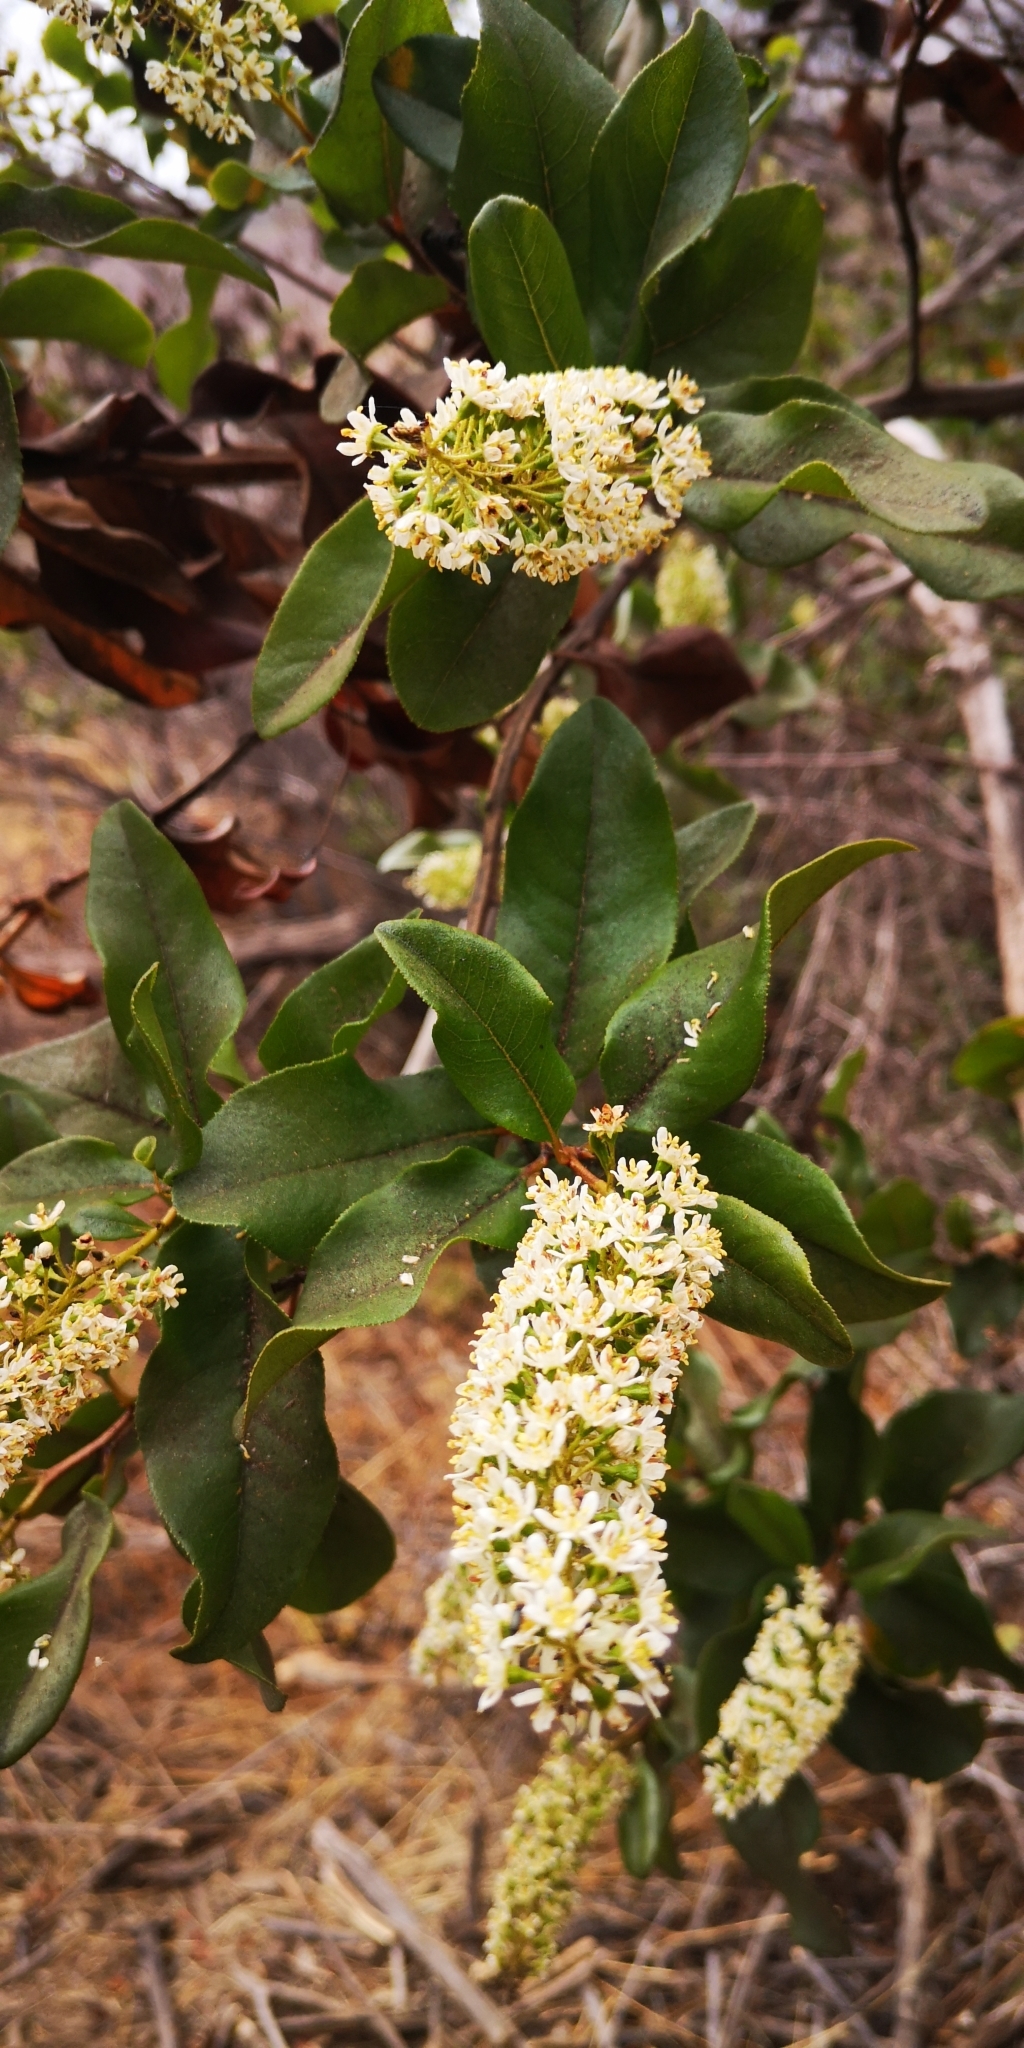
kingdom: Plantae
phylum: Tracheophyta
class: Magnoliopsida
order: Escalloniales
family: Escalloniaceae
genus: Escallonia
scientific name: Escallonia pulverulenta
